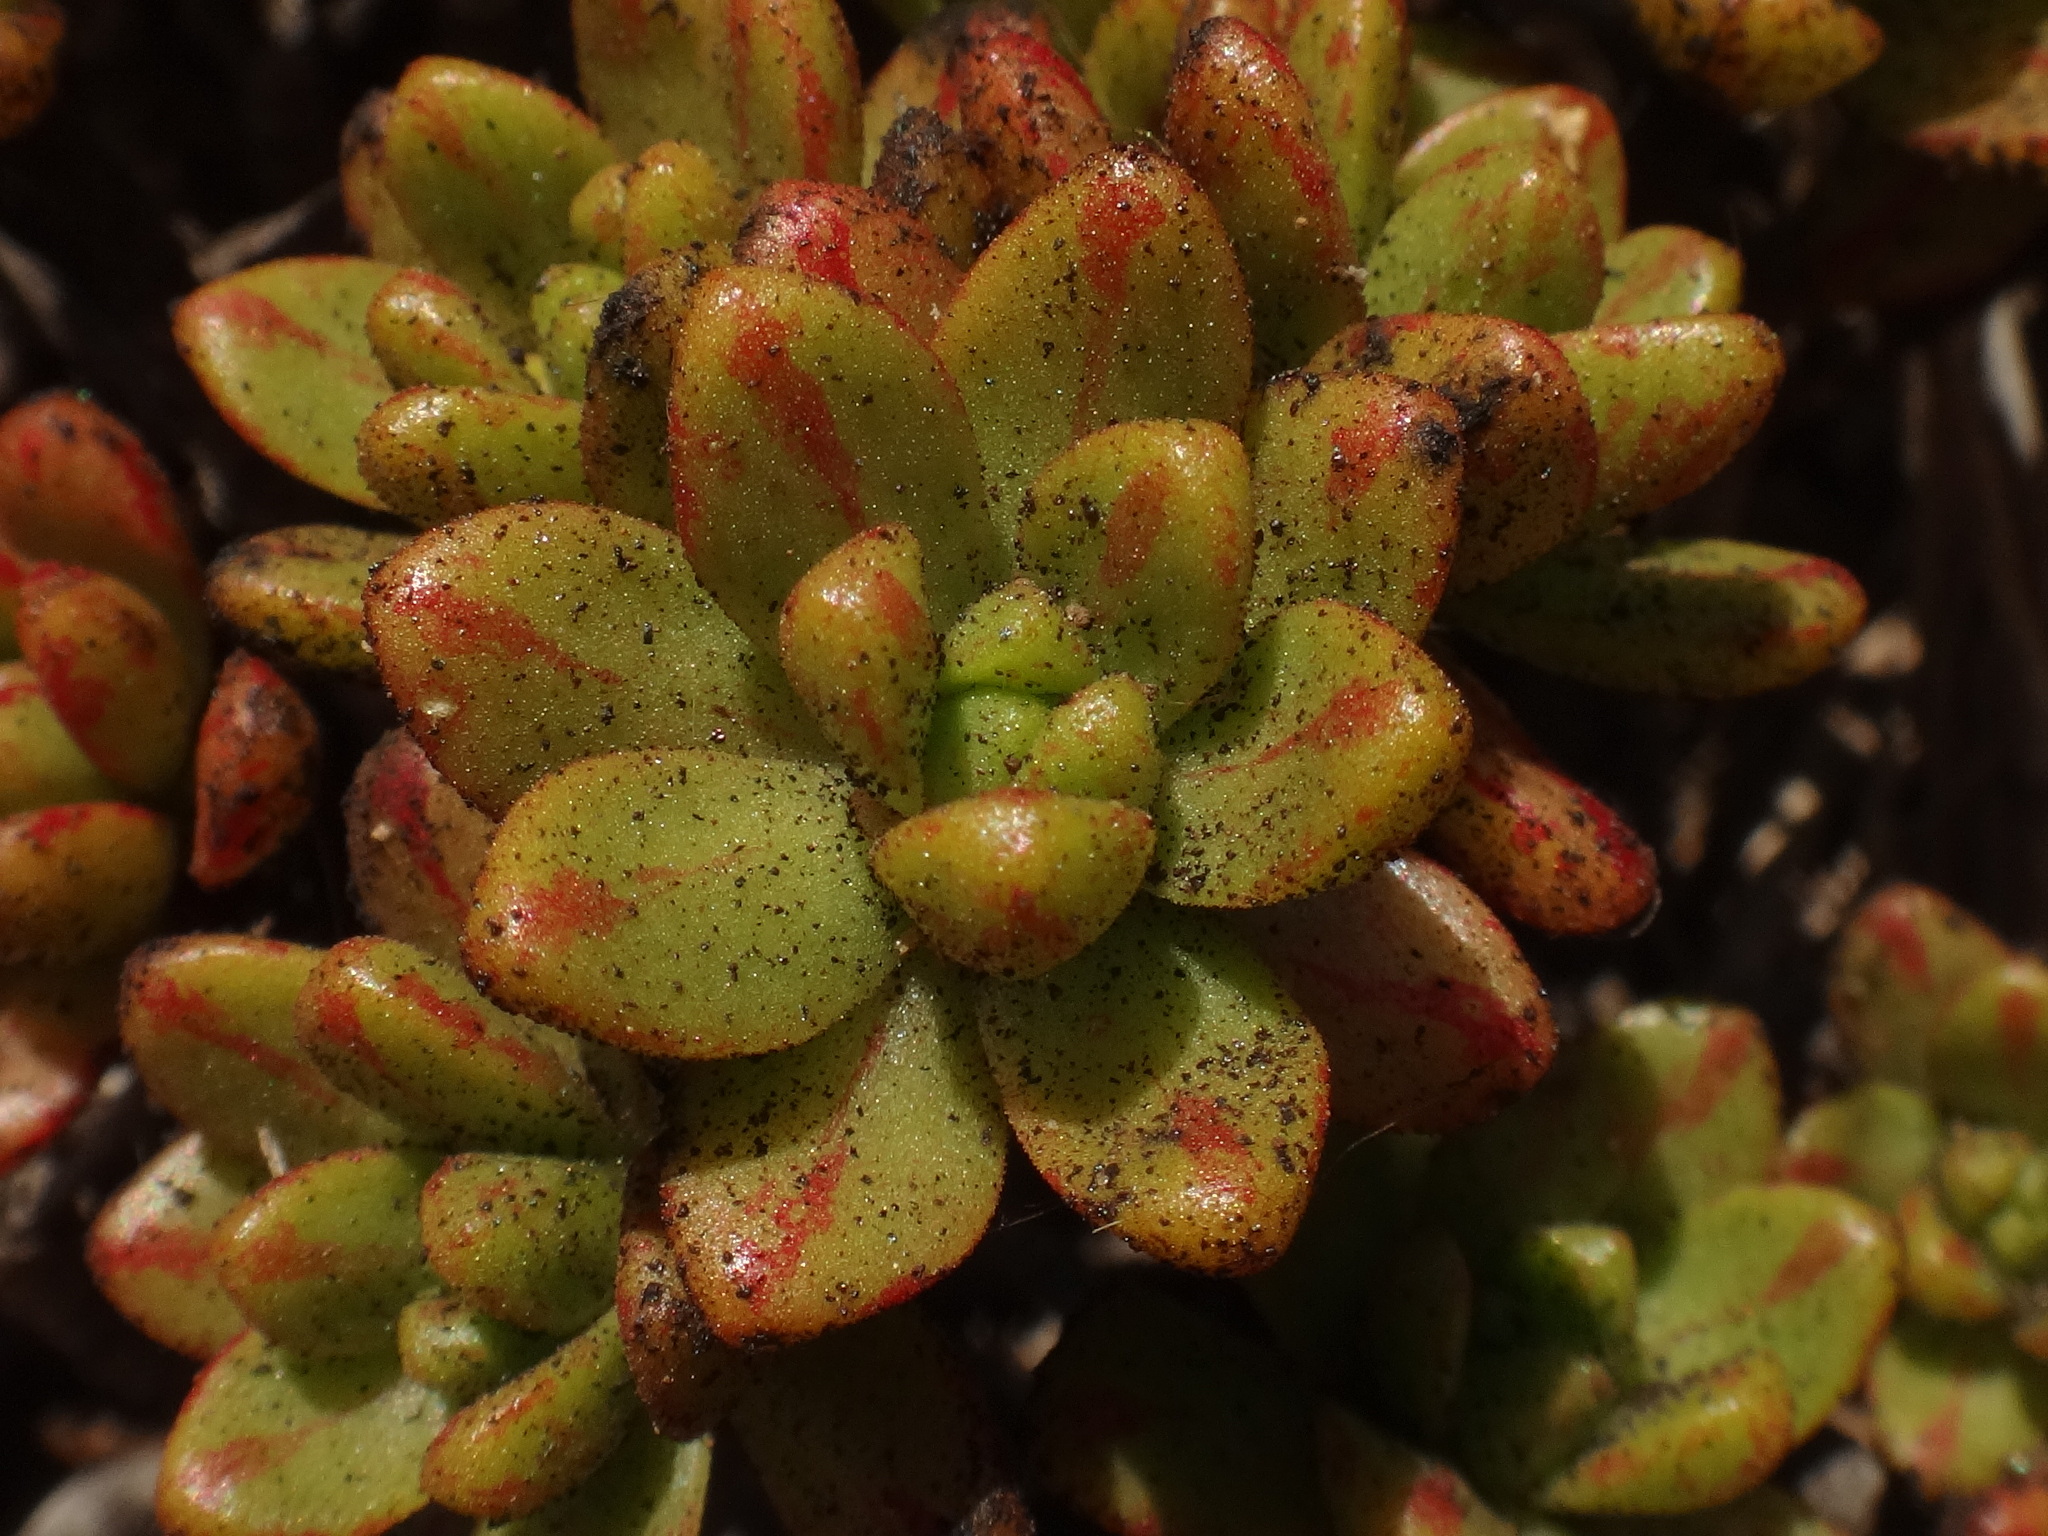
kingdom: Plantae
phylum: Tracheophyta
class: Magnoliopsida
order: Saxifragales
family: Crassulaceae
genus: Aeonium
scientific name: Aeonium sedifolium
